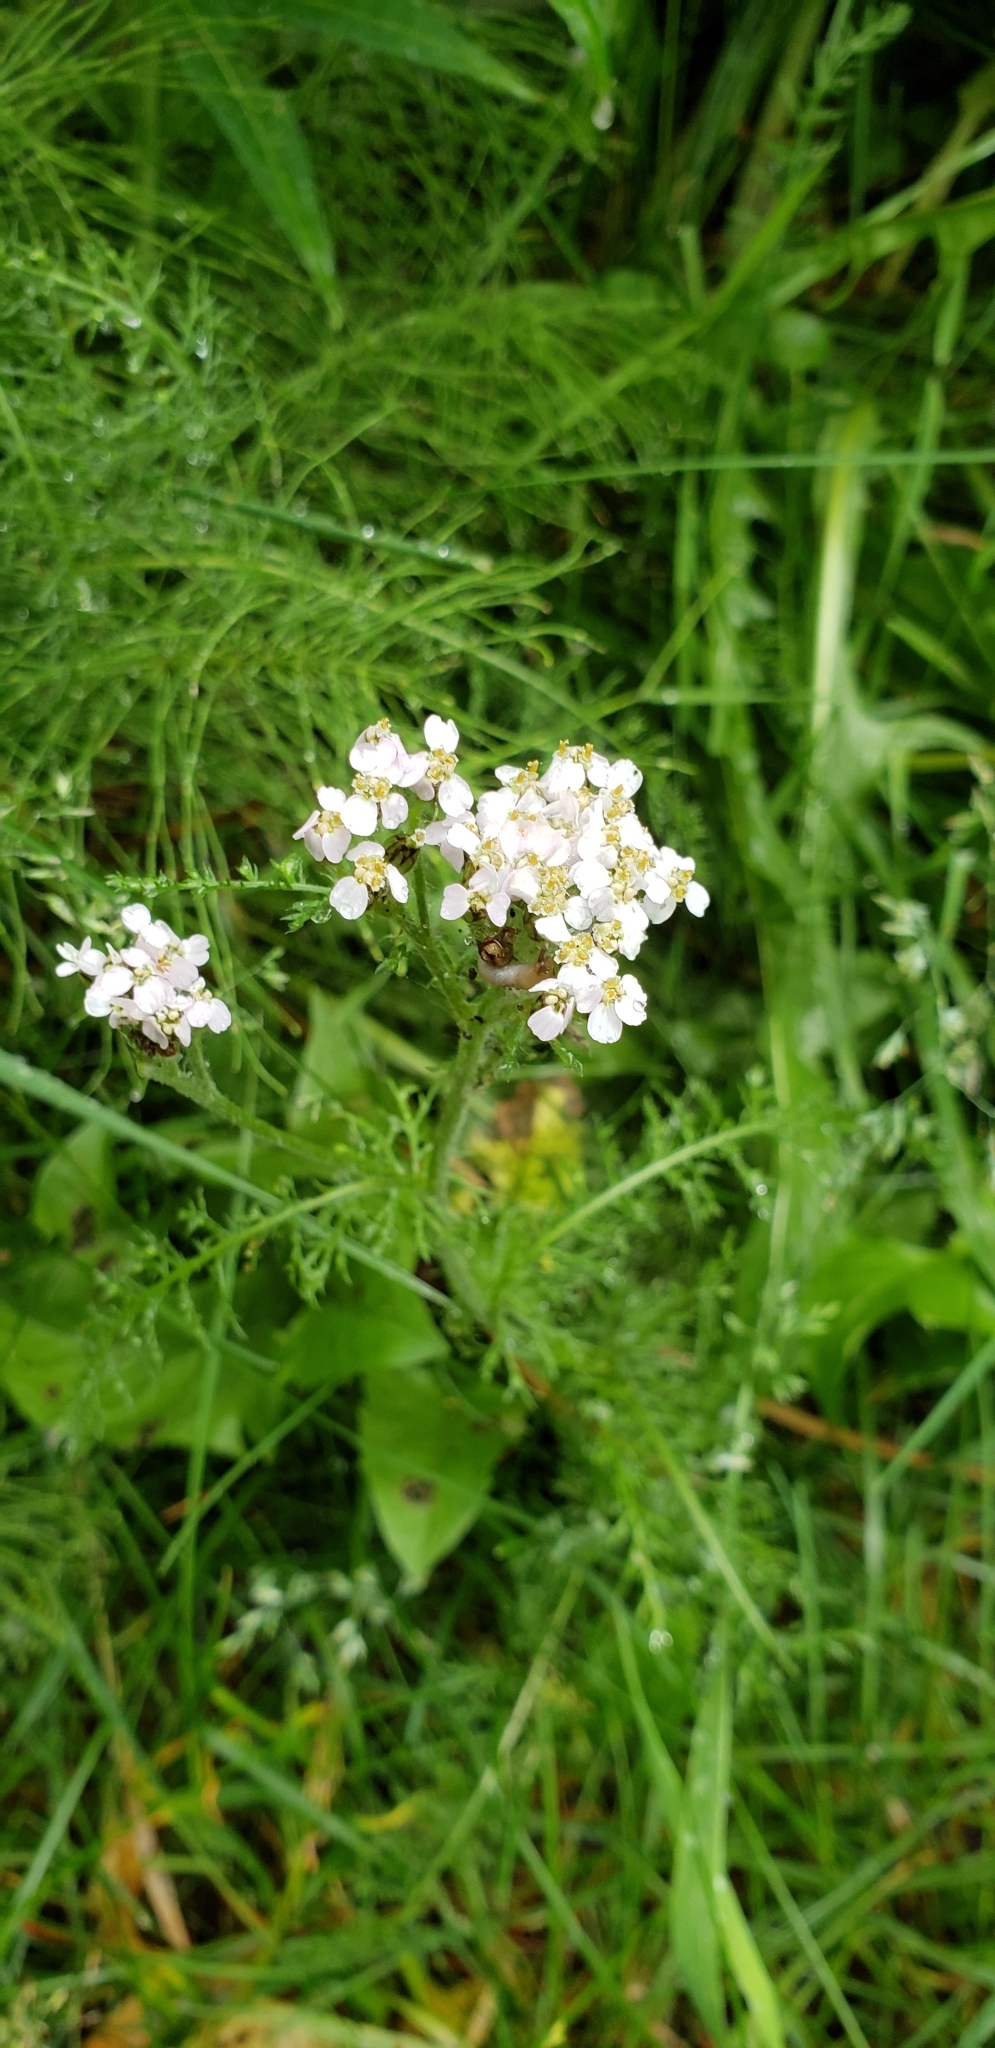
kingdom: Plantae
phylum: Tracheophyta
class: Magnoliopsida
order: Asterales
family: Asteraceae
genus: Achillea
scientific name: Achillea millefolium
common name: Yarrow
